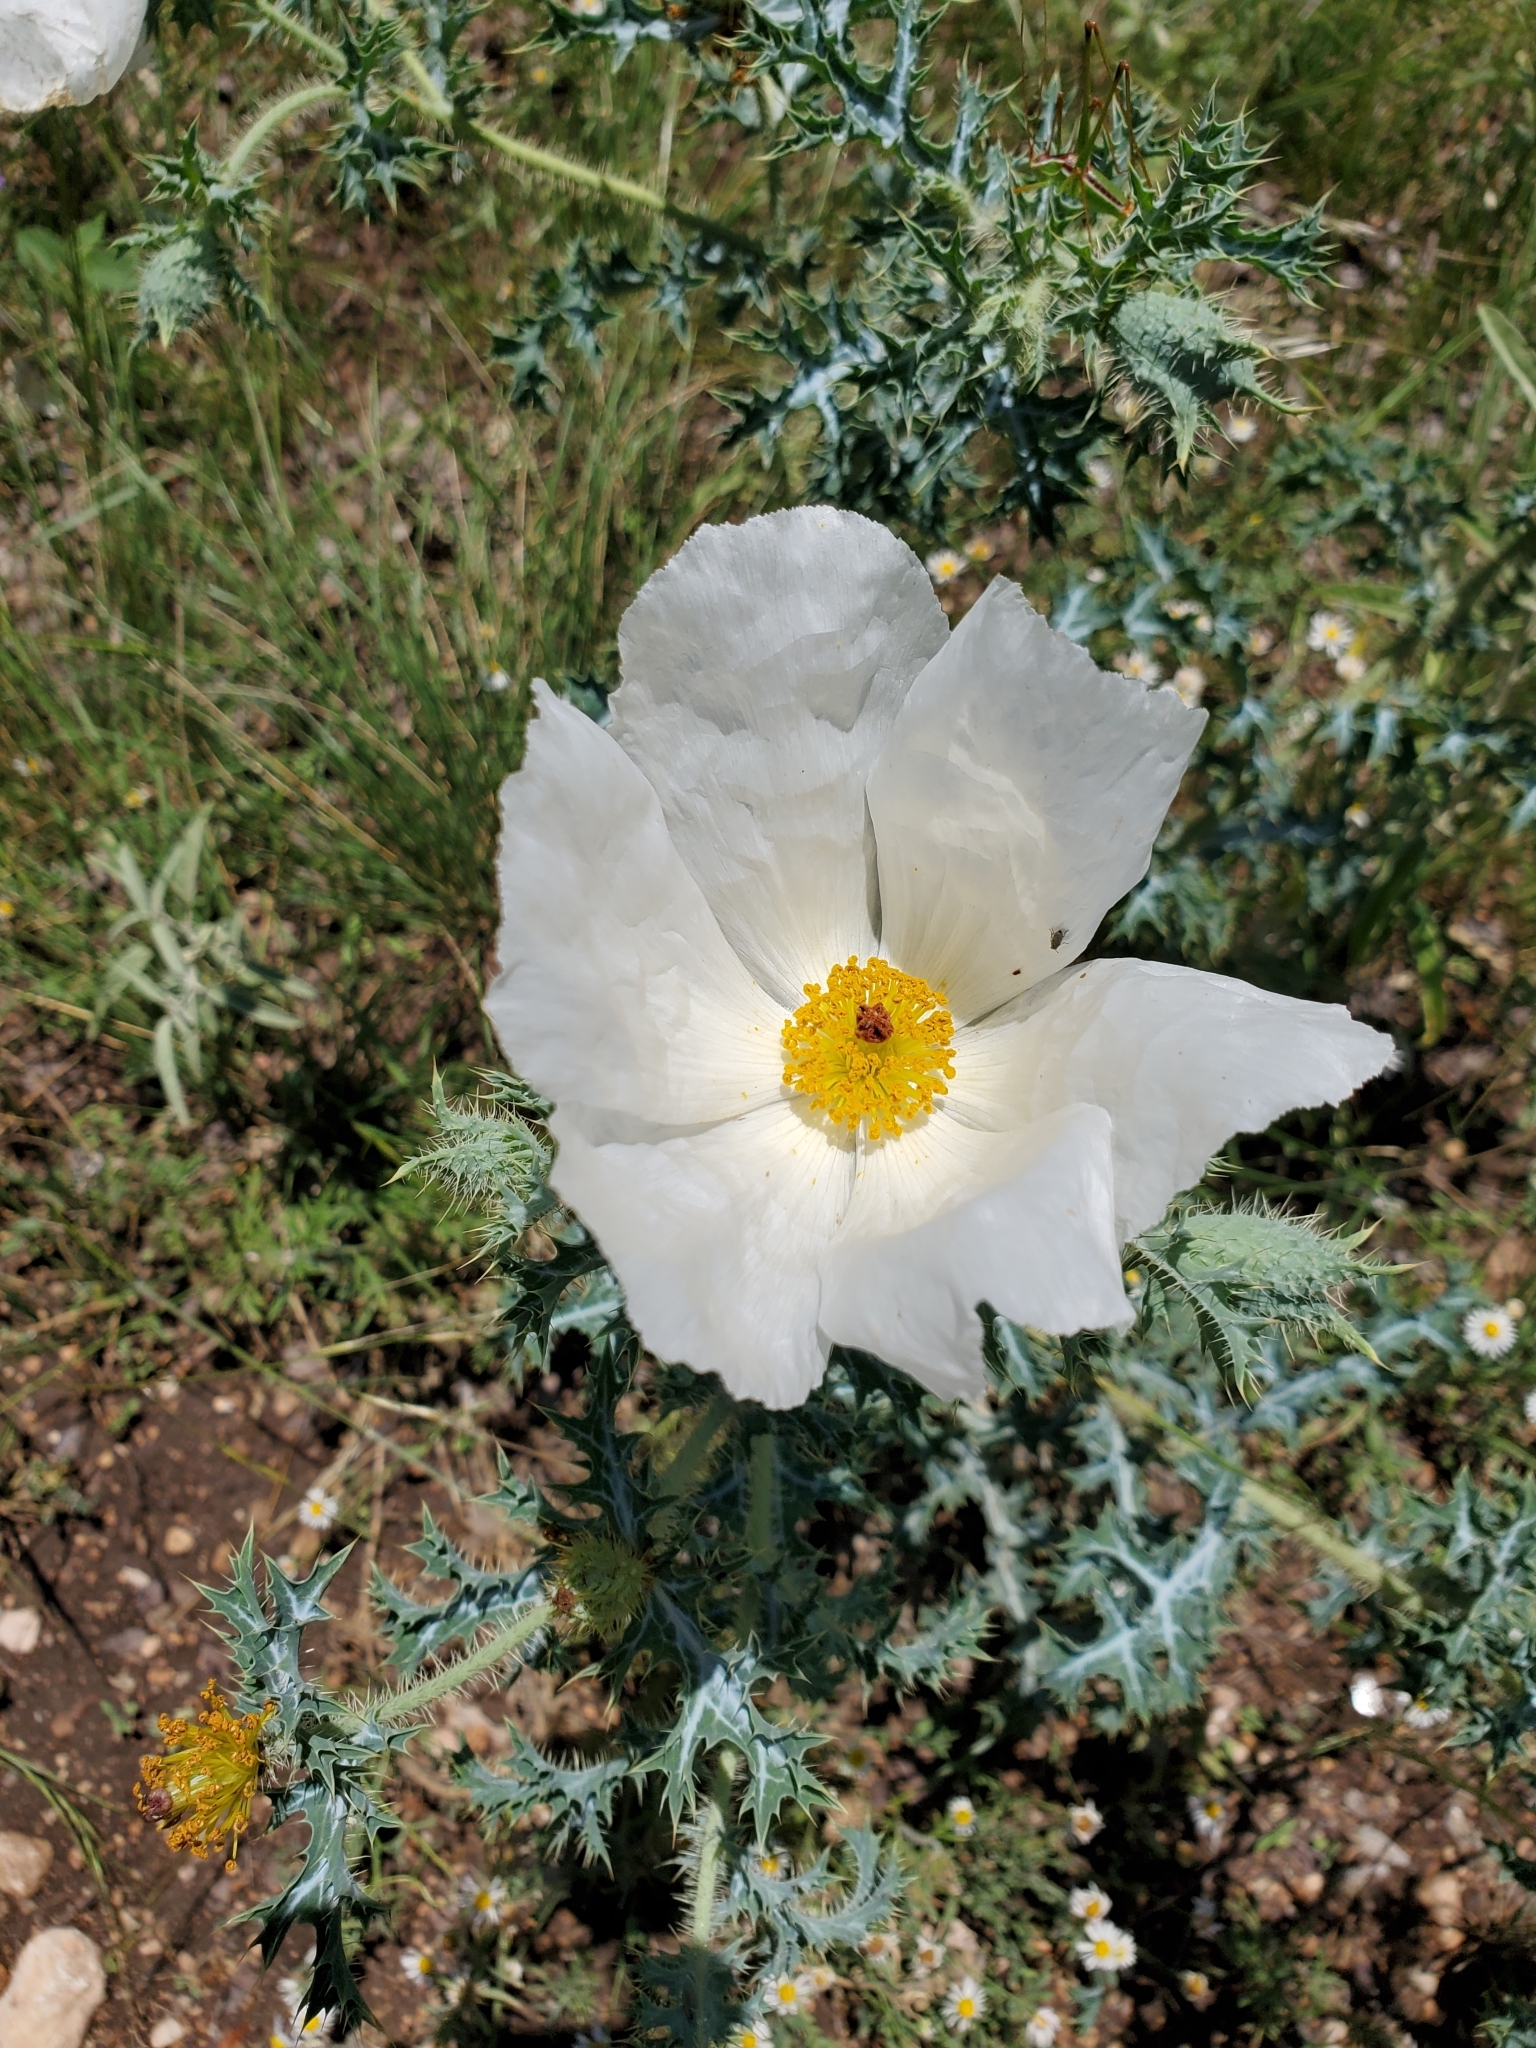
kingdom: Plantae
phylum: Tracheophyta
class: Magnoliopsida
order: Ranunculales
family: Papaveraceae
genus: Argemone
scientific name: Argemone aurantiaca
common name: Texas prickly-poppy
